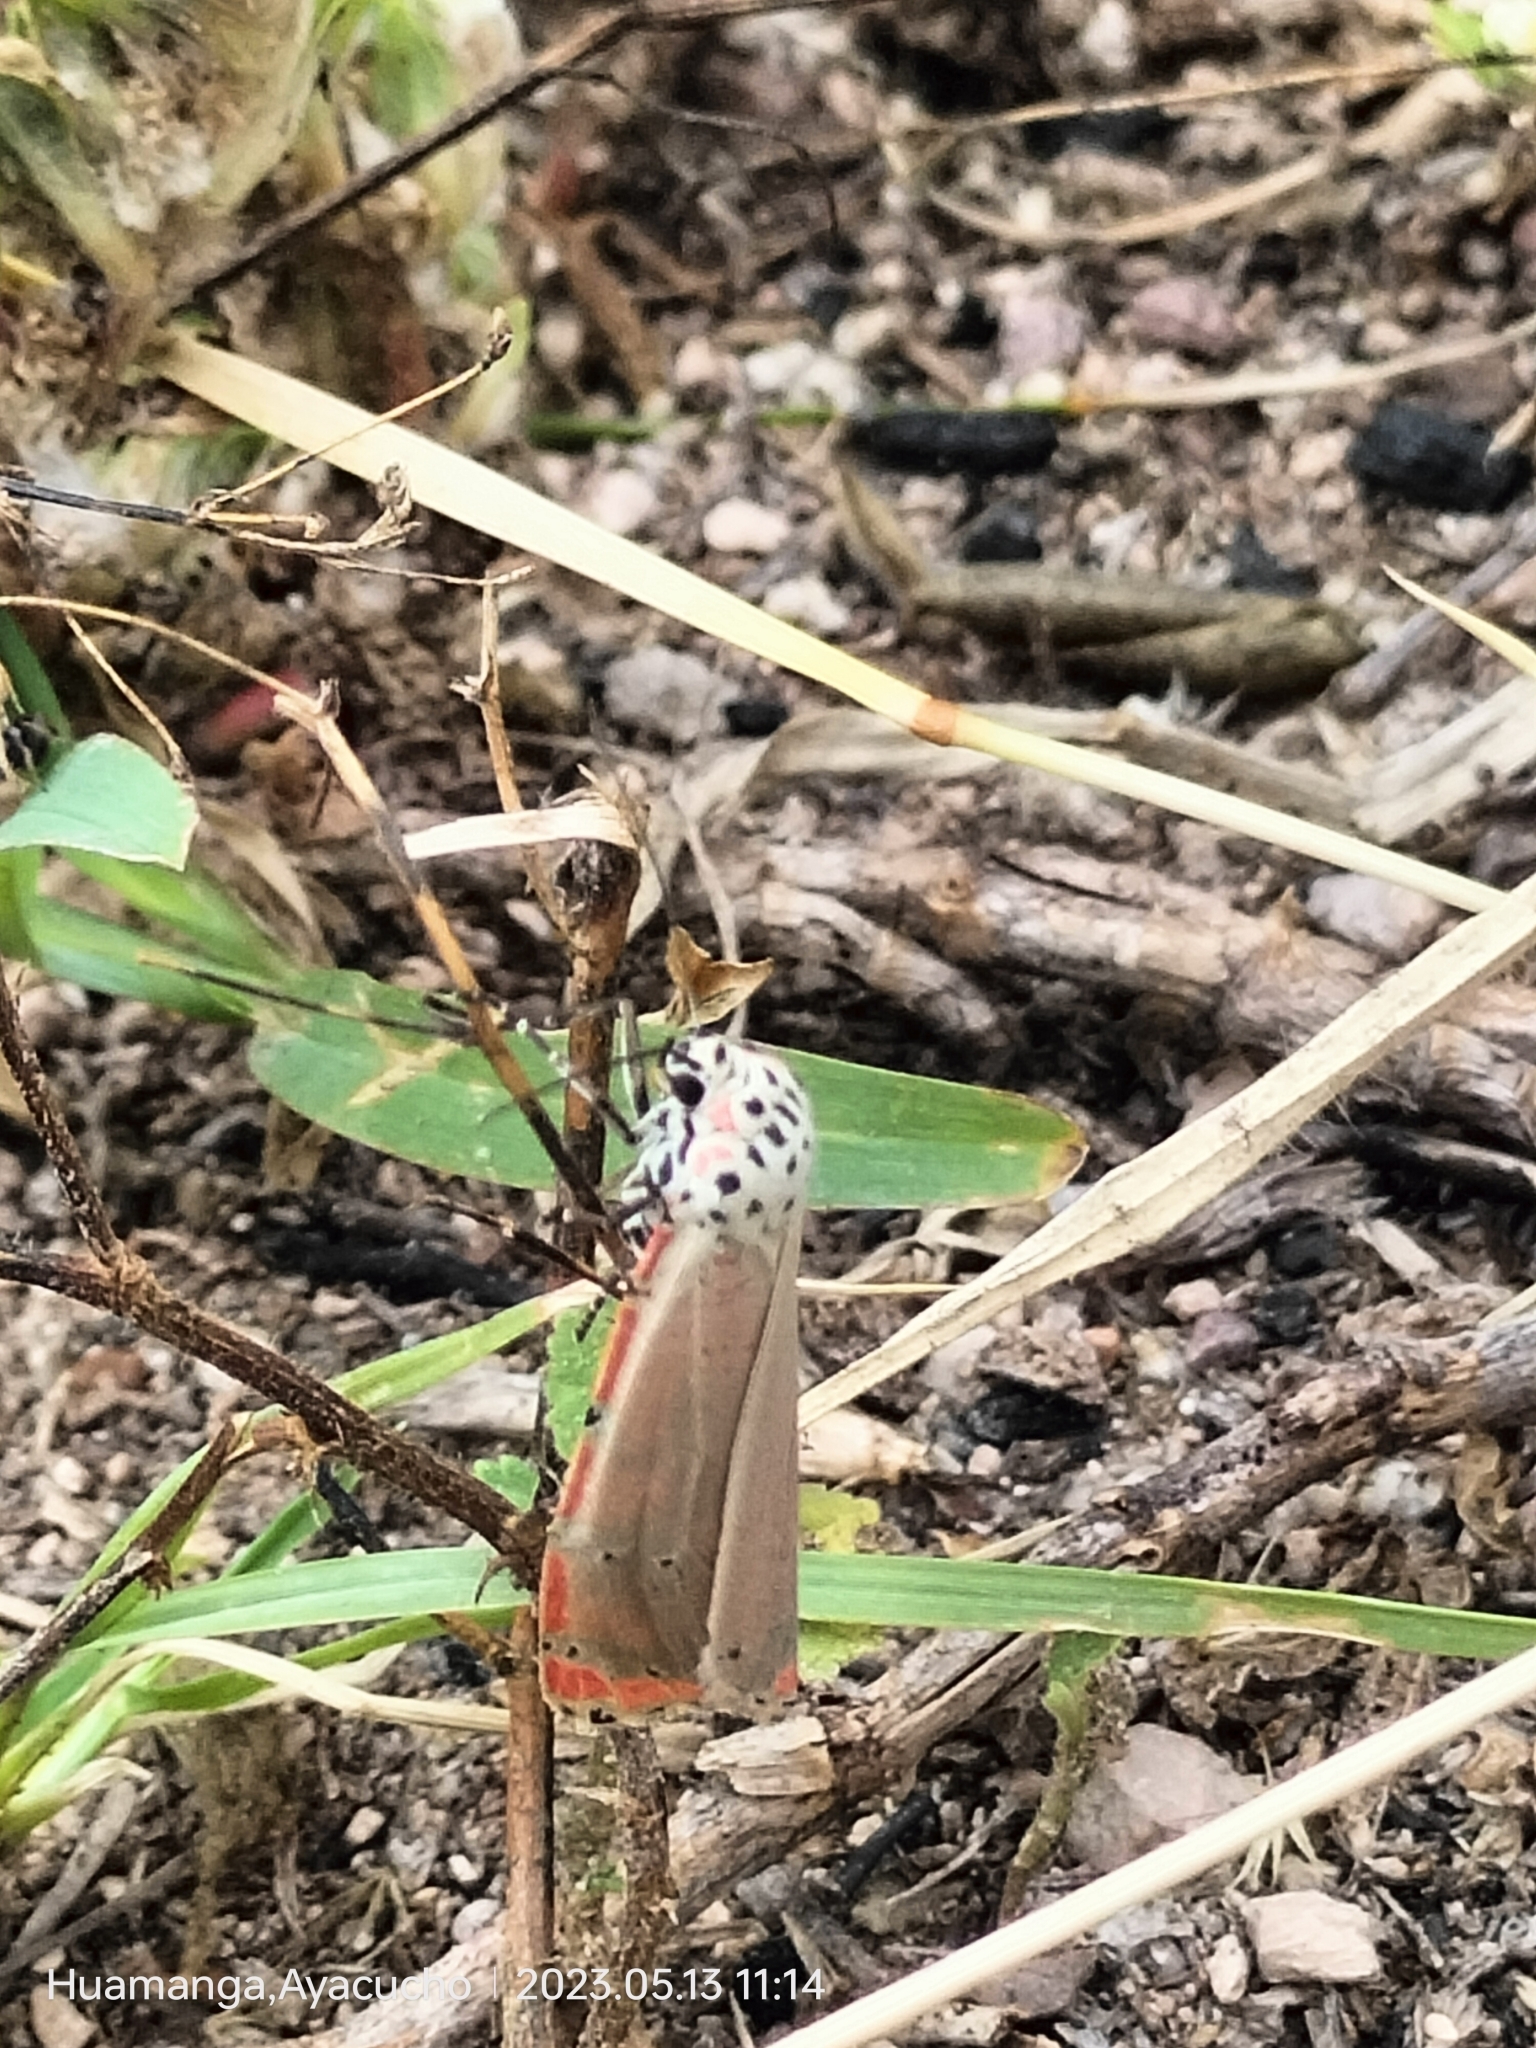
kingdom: Animalia
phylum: Arthropoda
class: Insecta
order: Lepidoptera
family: Erebidae
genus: Utetheisa
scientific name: Utetheisa ornatrix
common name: Beautiful utetheisa
